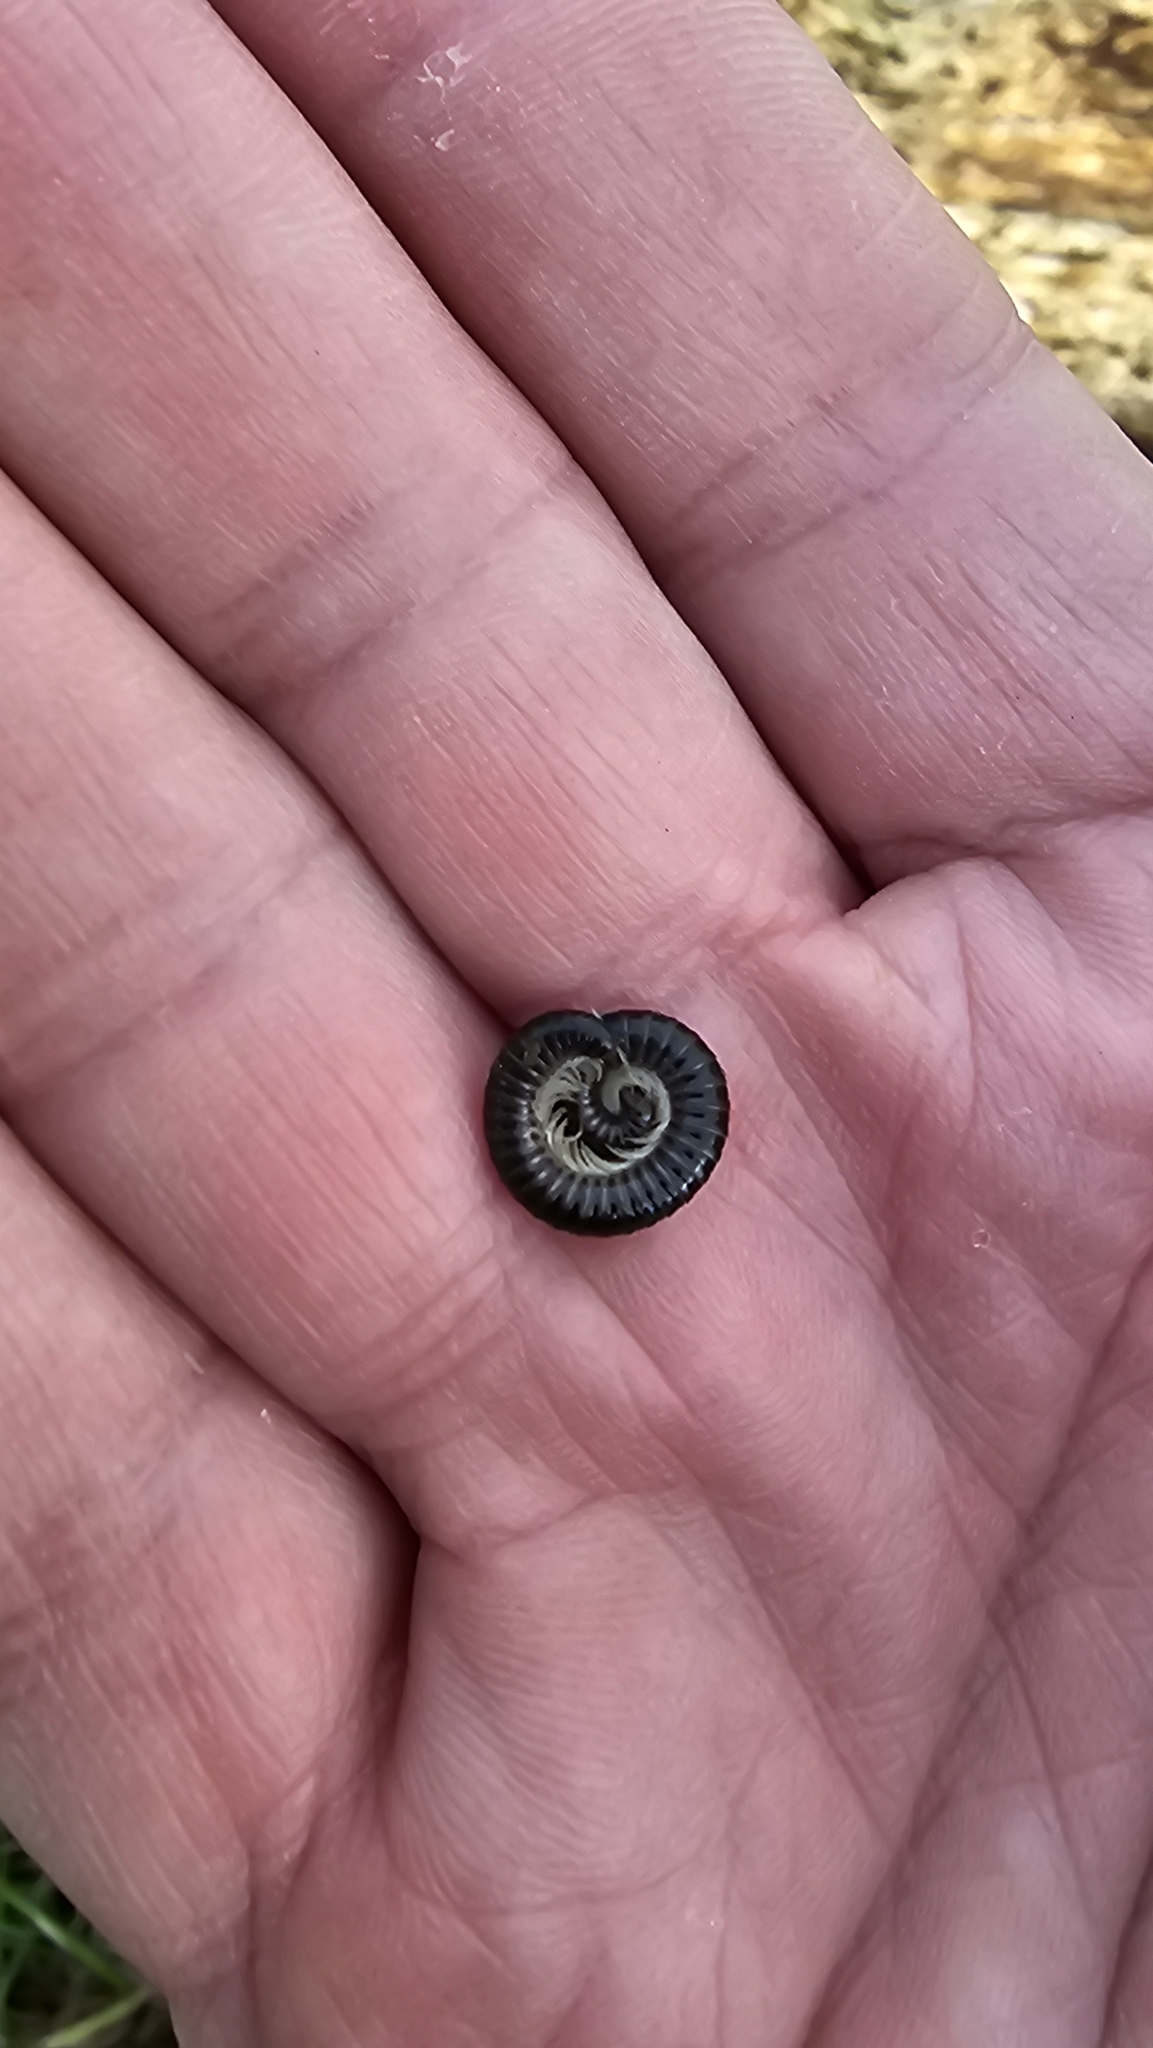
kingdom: Animalia
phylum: Arthropoda
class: Diplopoda
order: Julida
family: Julidae
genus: Tachypodoiulus
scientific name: Tachypodoiulus niger
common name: White-legged snake millipede
